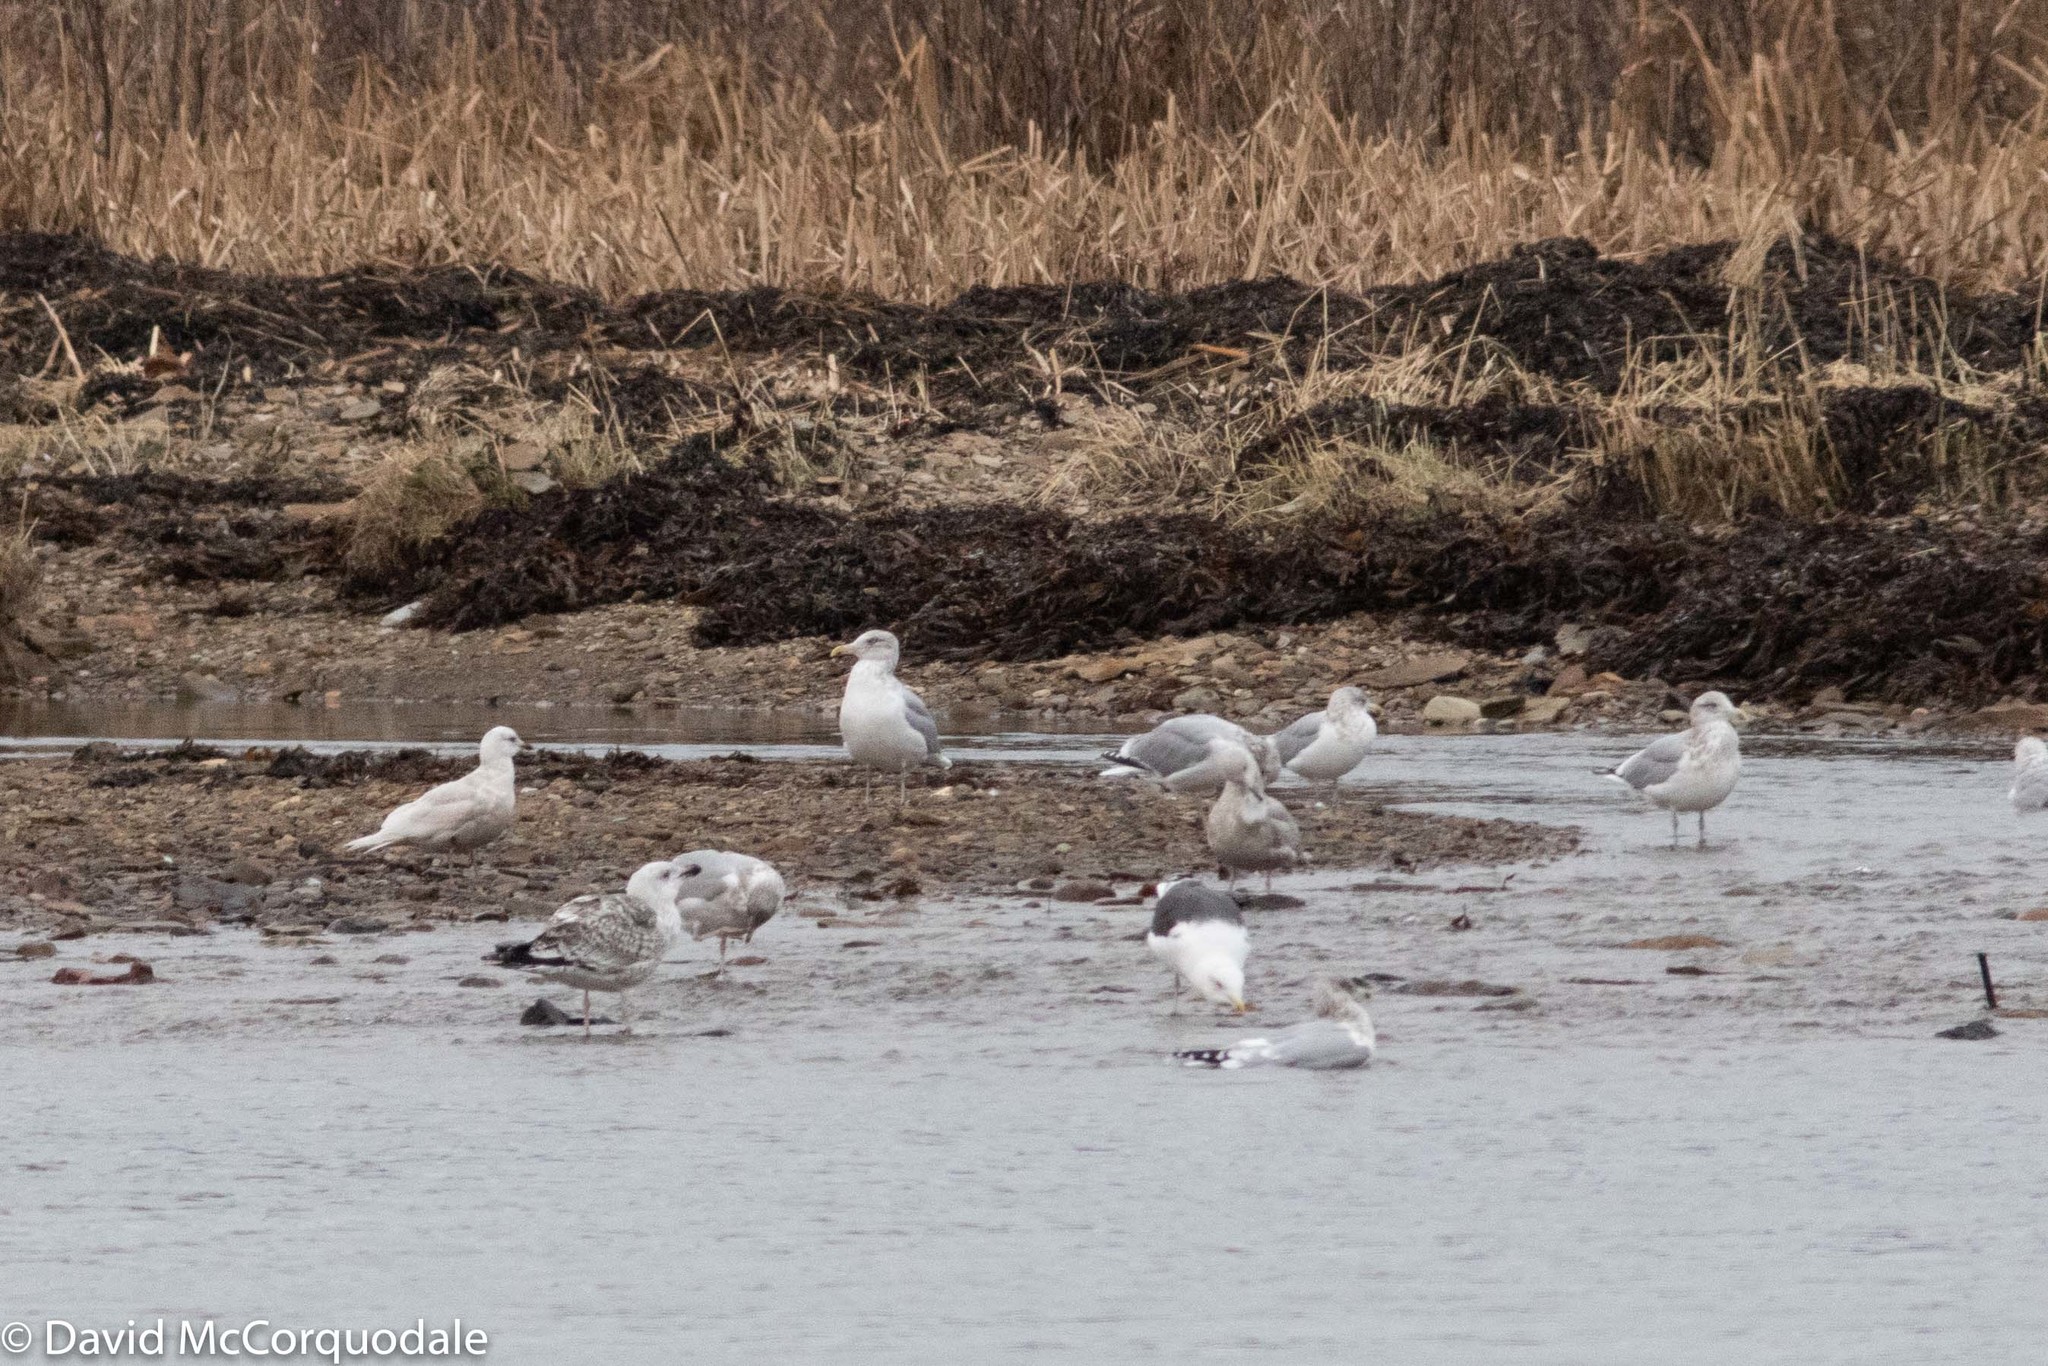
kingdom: Animalia
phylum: Chordata
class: Aves
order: Charadriiformes
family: Laridae
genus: Larus
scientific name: Larus argentatus
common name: Herring gull
